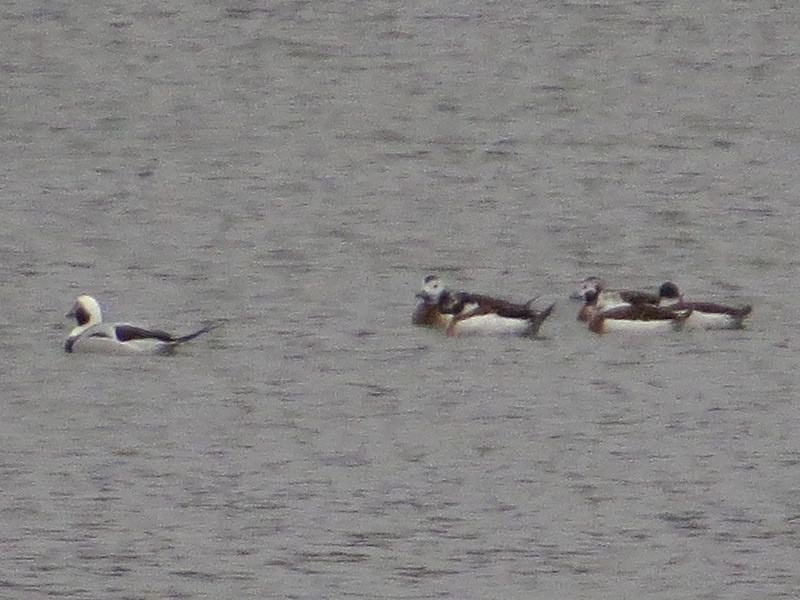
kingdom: Animalia
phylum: Chordata
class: Aves
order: Anseriformes
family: Anatidae
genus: Clangula
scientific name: Clangula hyemalis
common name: Long-tailed duck
